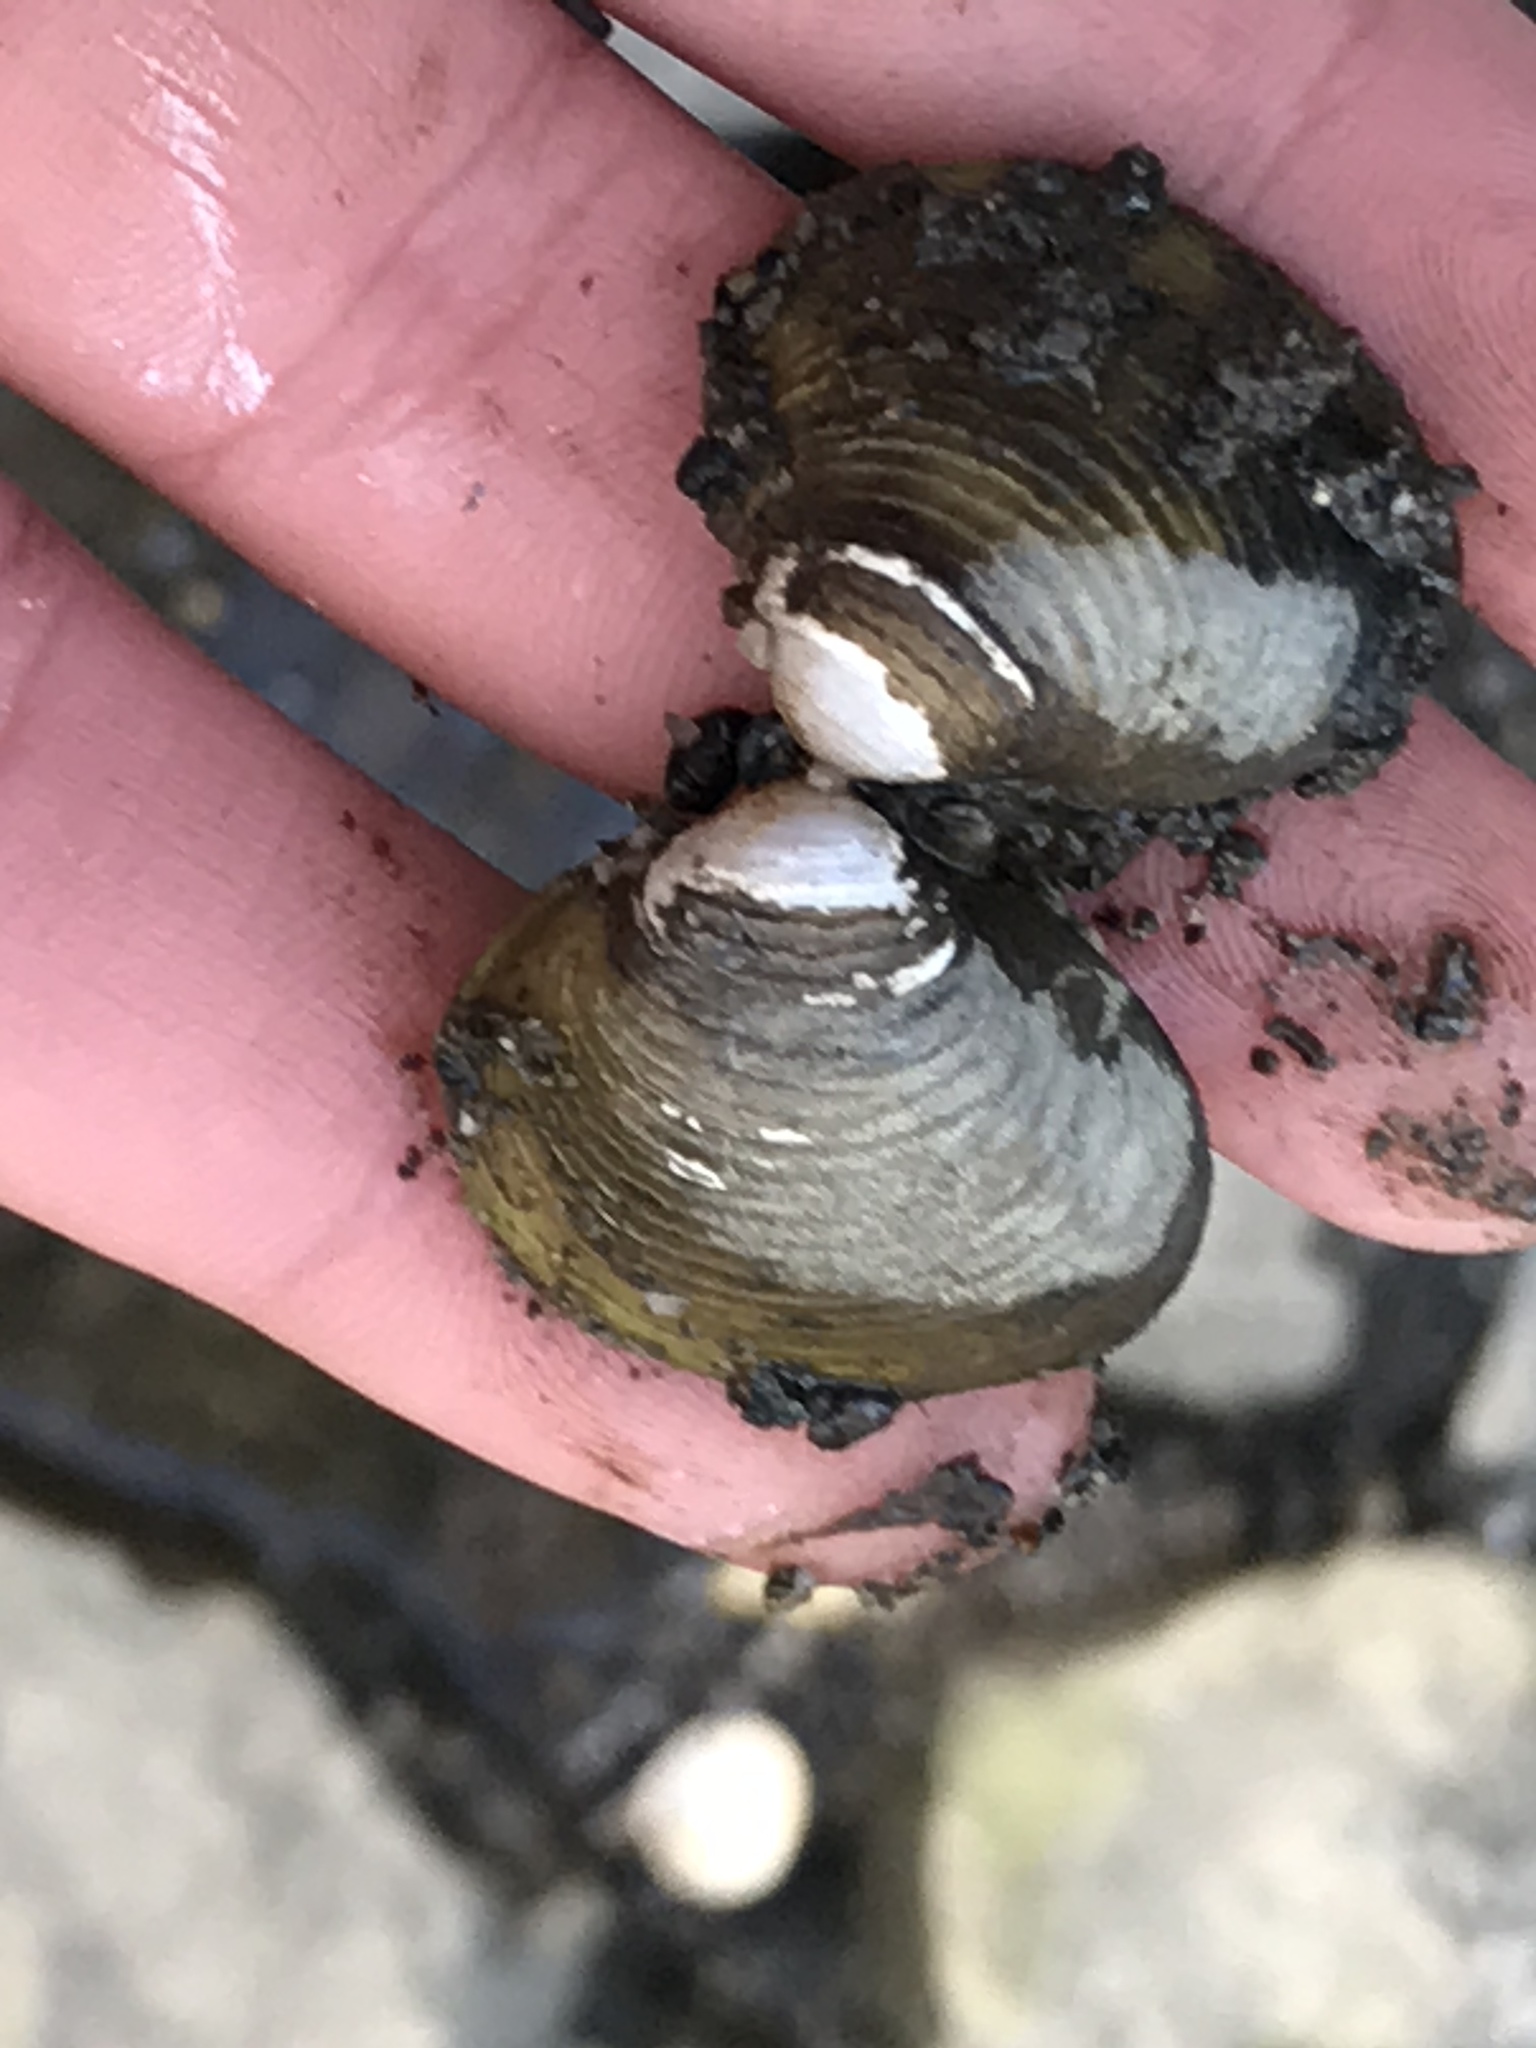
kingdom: Animalia
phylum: Mollusca
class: Bivalvia
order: Venerida
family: Cyrenidae
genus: Corbicula
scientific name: Corbicula fluminea
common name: Asian clam
